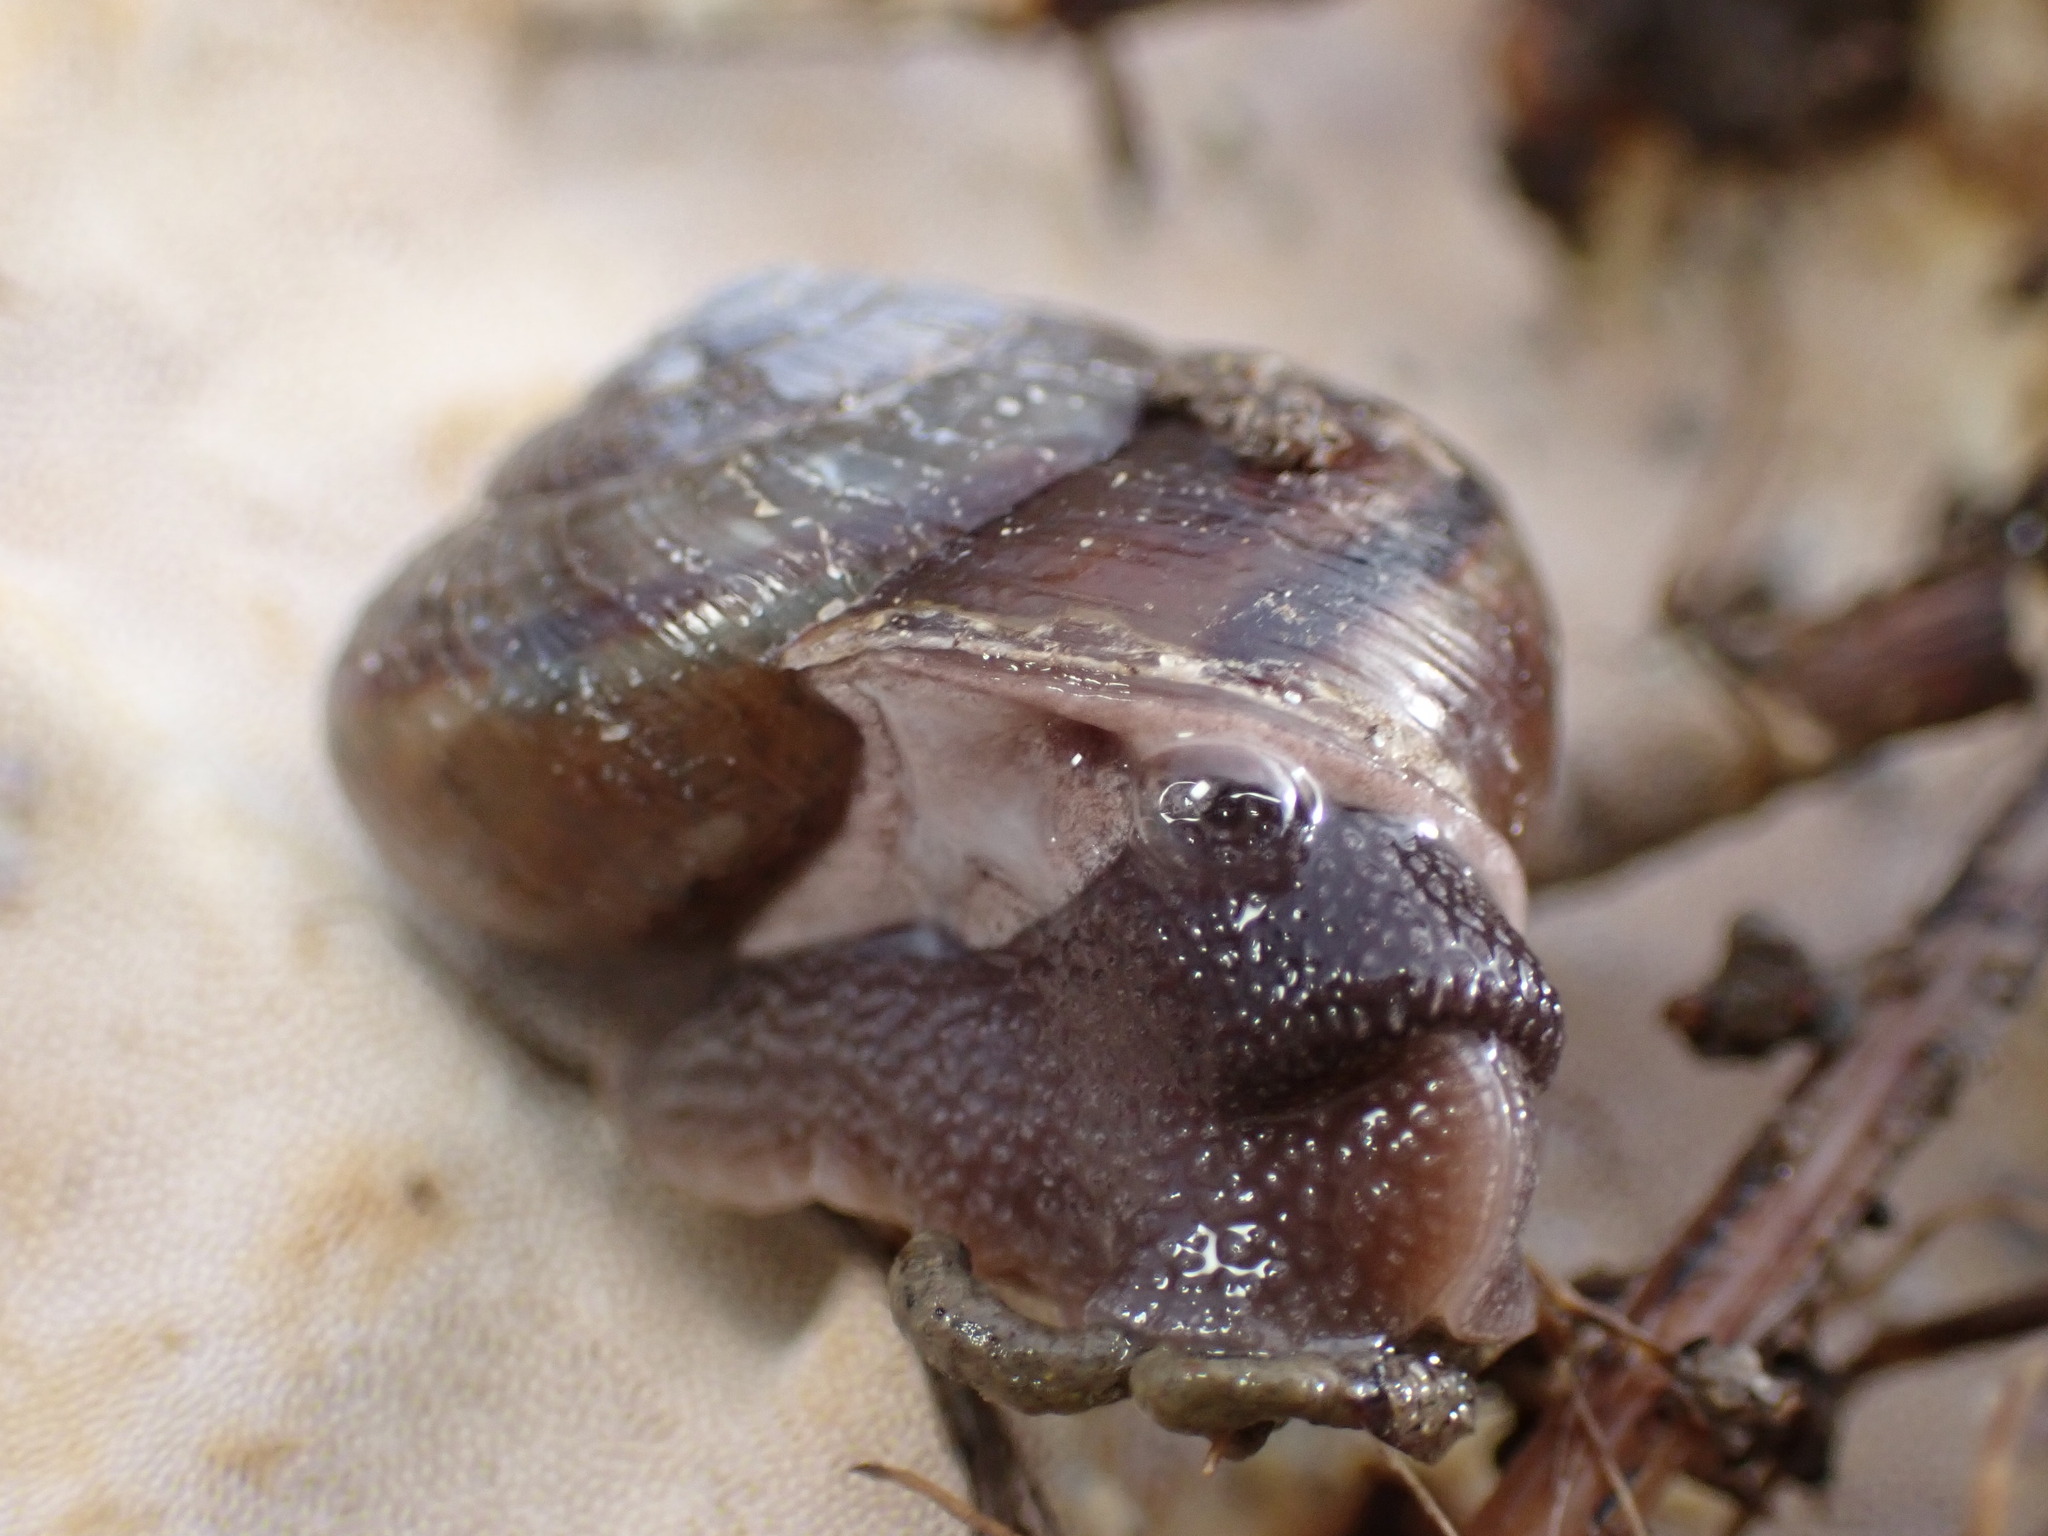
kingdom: Animalia
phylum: Mollusca
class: Gastropoda
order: Stylommatophora
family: Xanthonychidae
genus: Helminthoglypta
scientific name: Helminthoglypta umbilicata
